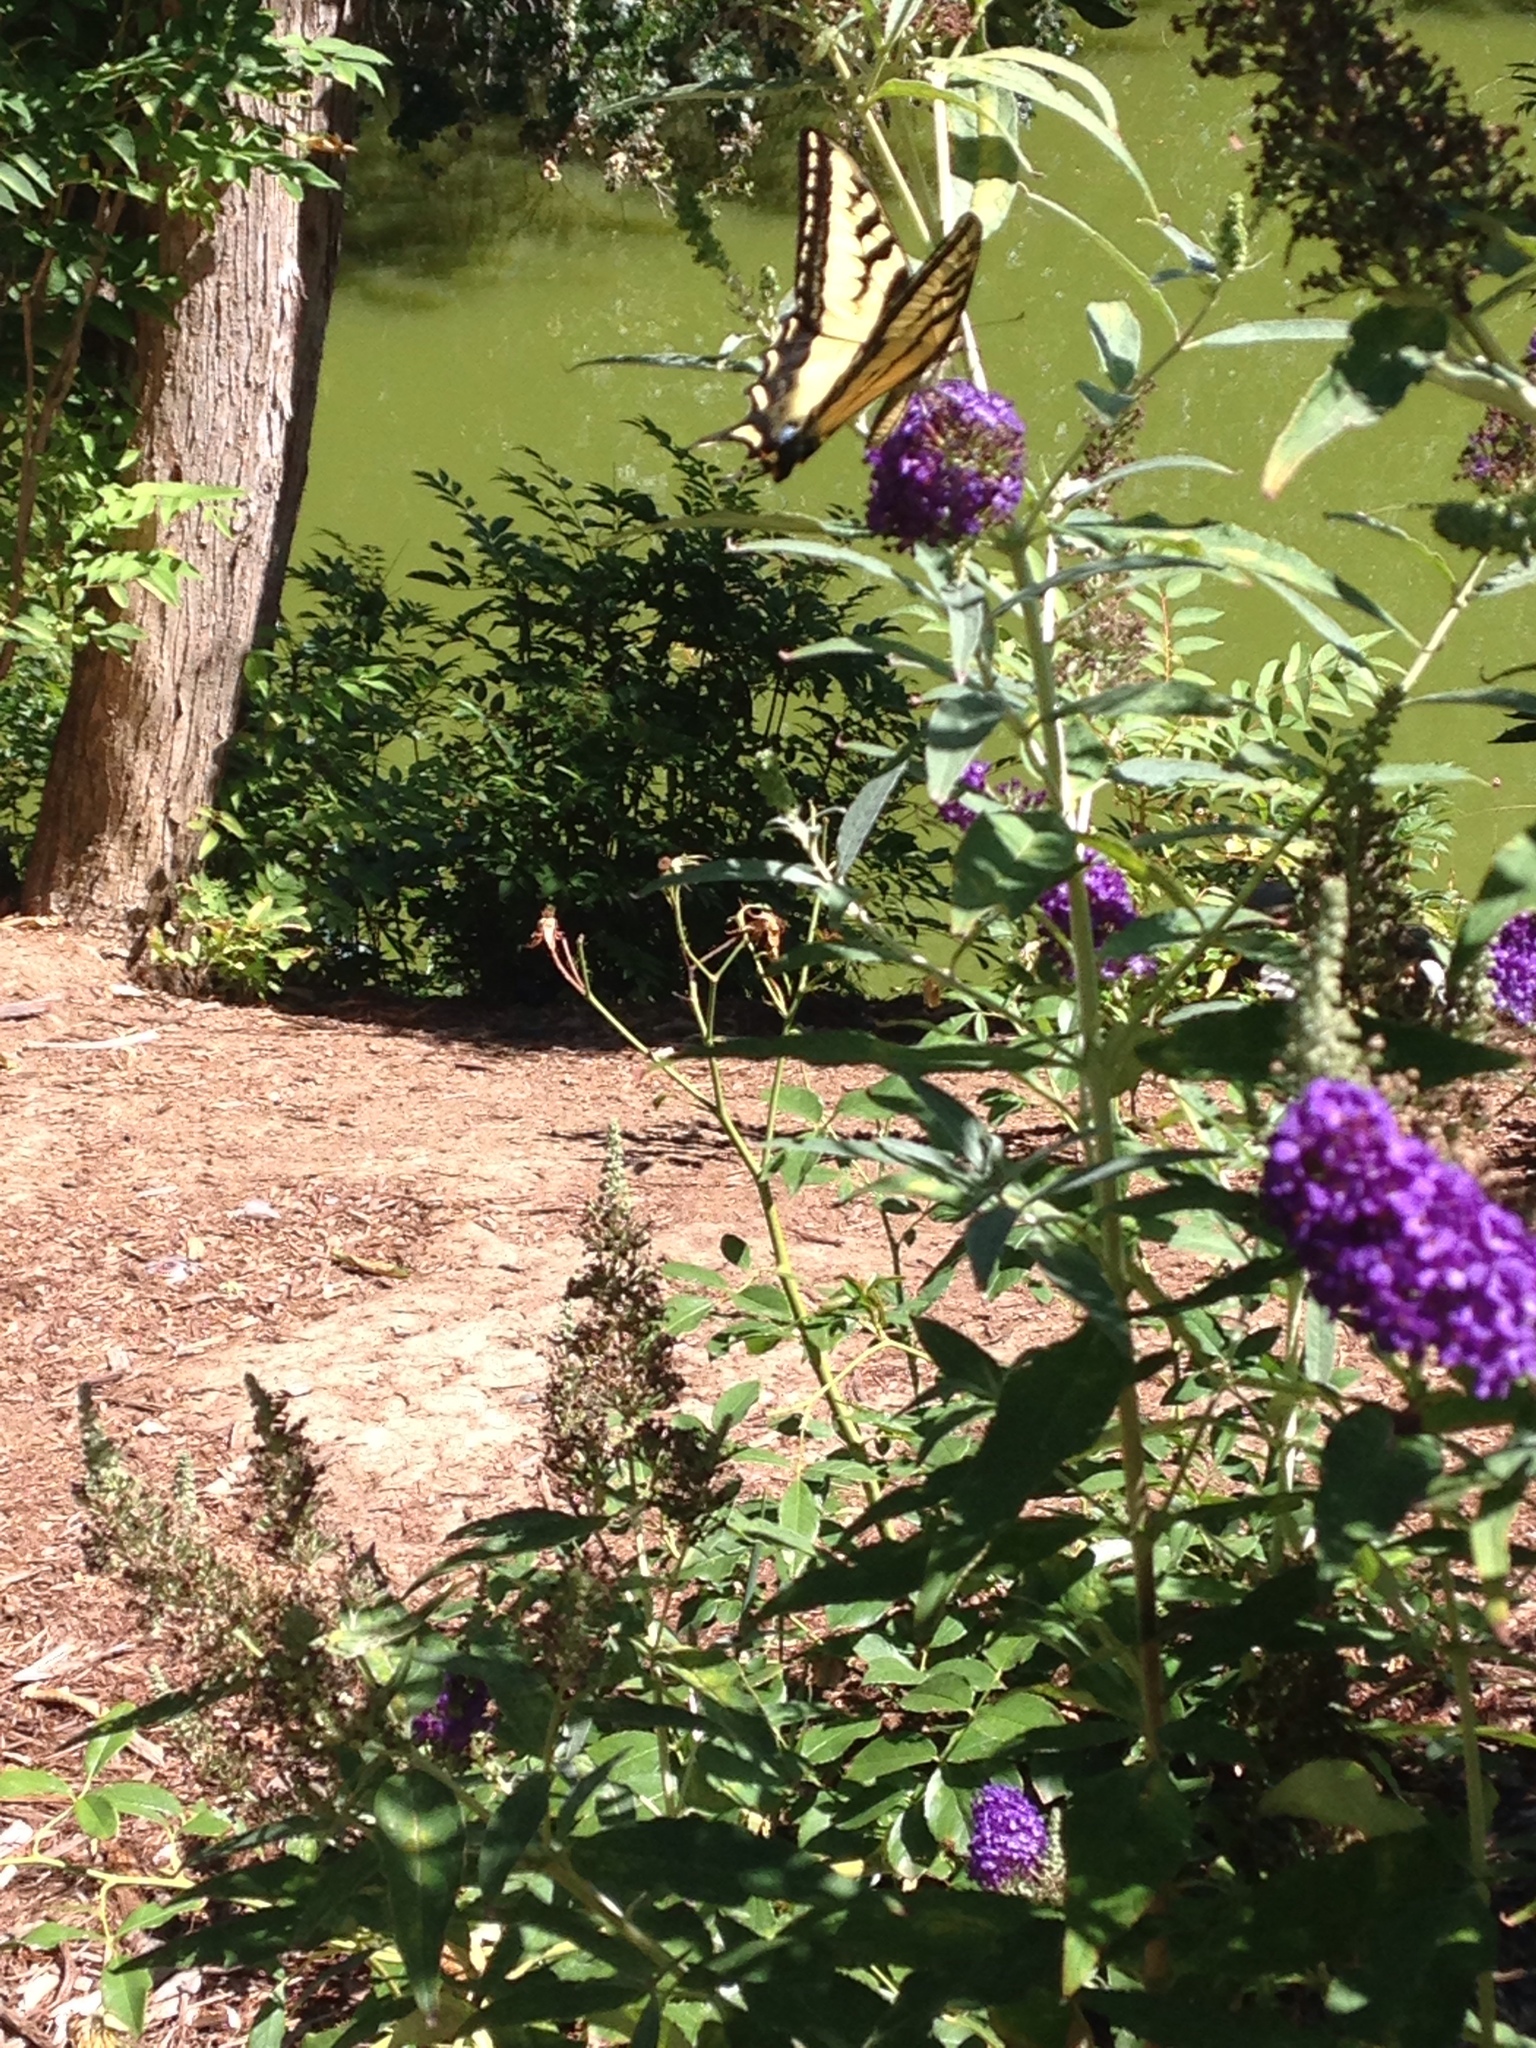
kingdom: Animalia
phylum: Arthropoda
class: Insecta
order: Lepidoptera
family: Papilionidae
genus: Papilio
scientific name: Papilio rutulus
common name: Western tiger swallowtail
